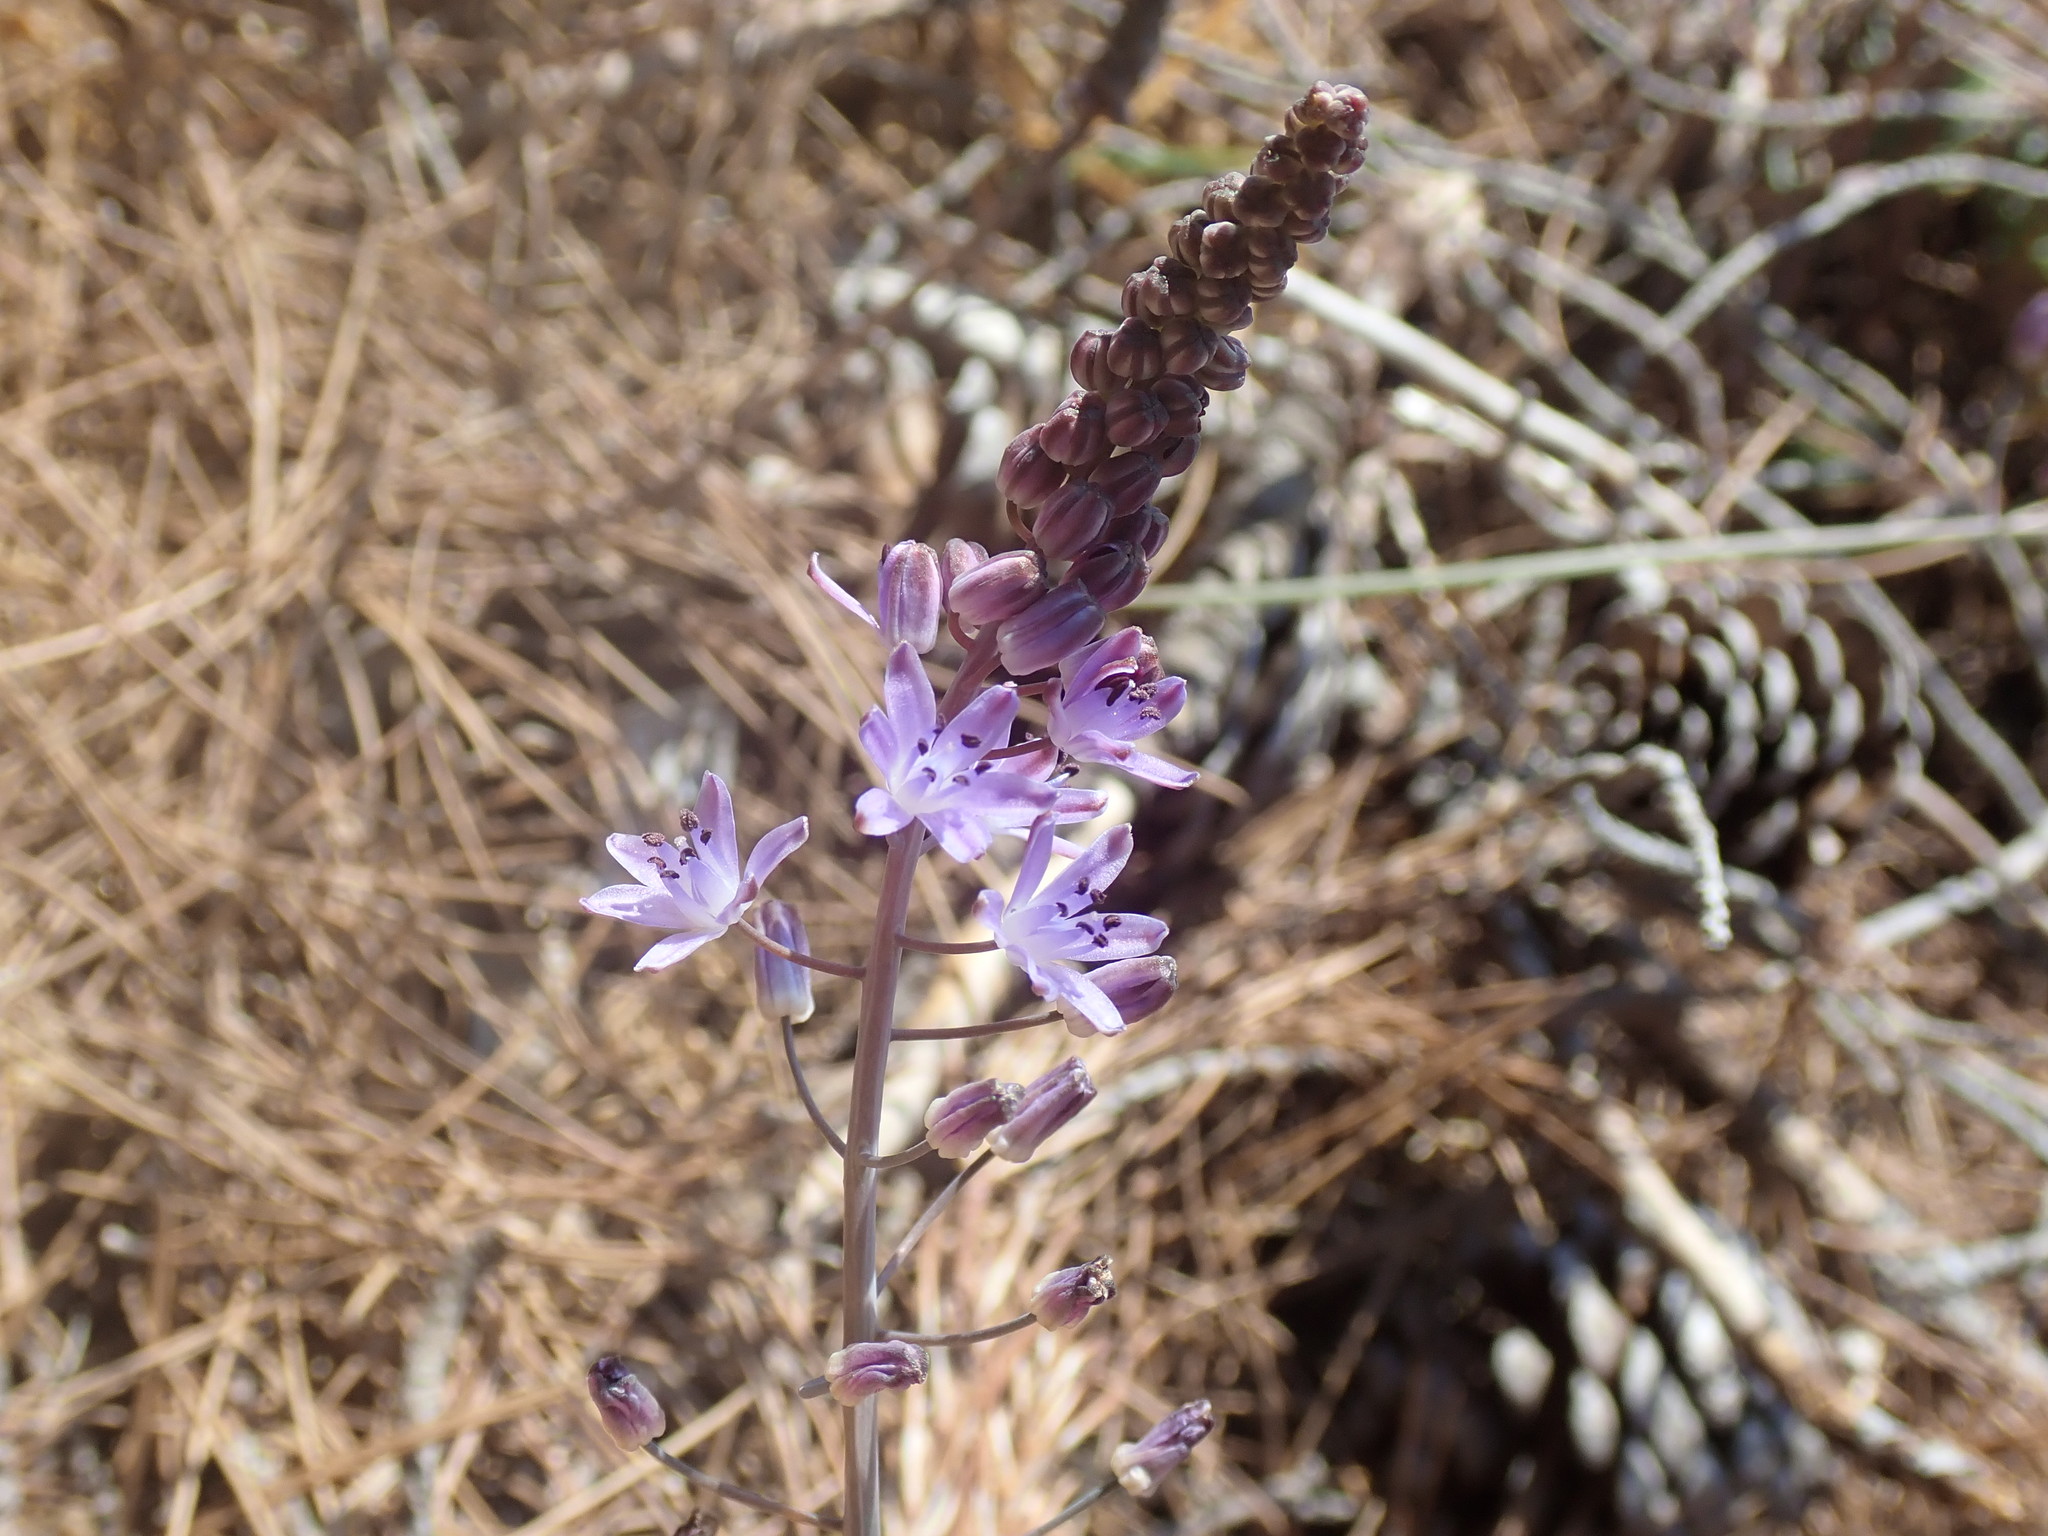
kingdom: Plantae
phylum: Tracheophyta
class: Liliopsida
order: Asparagales
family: Asparagaceae
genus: Prospero
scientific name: Prospero autumnale
